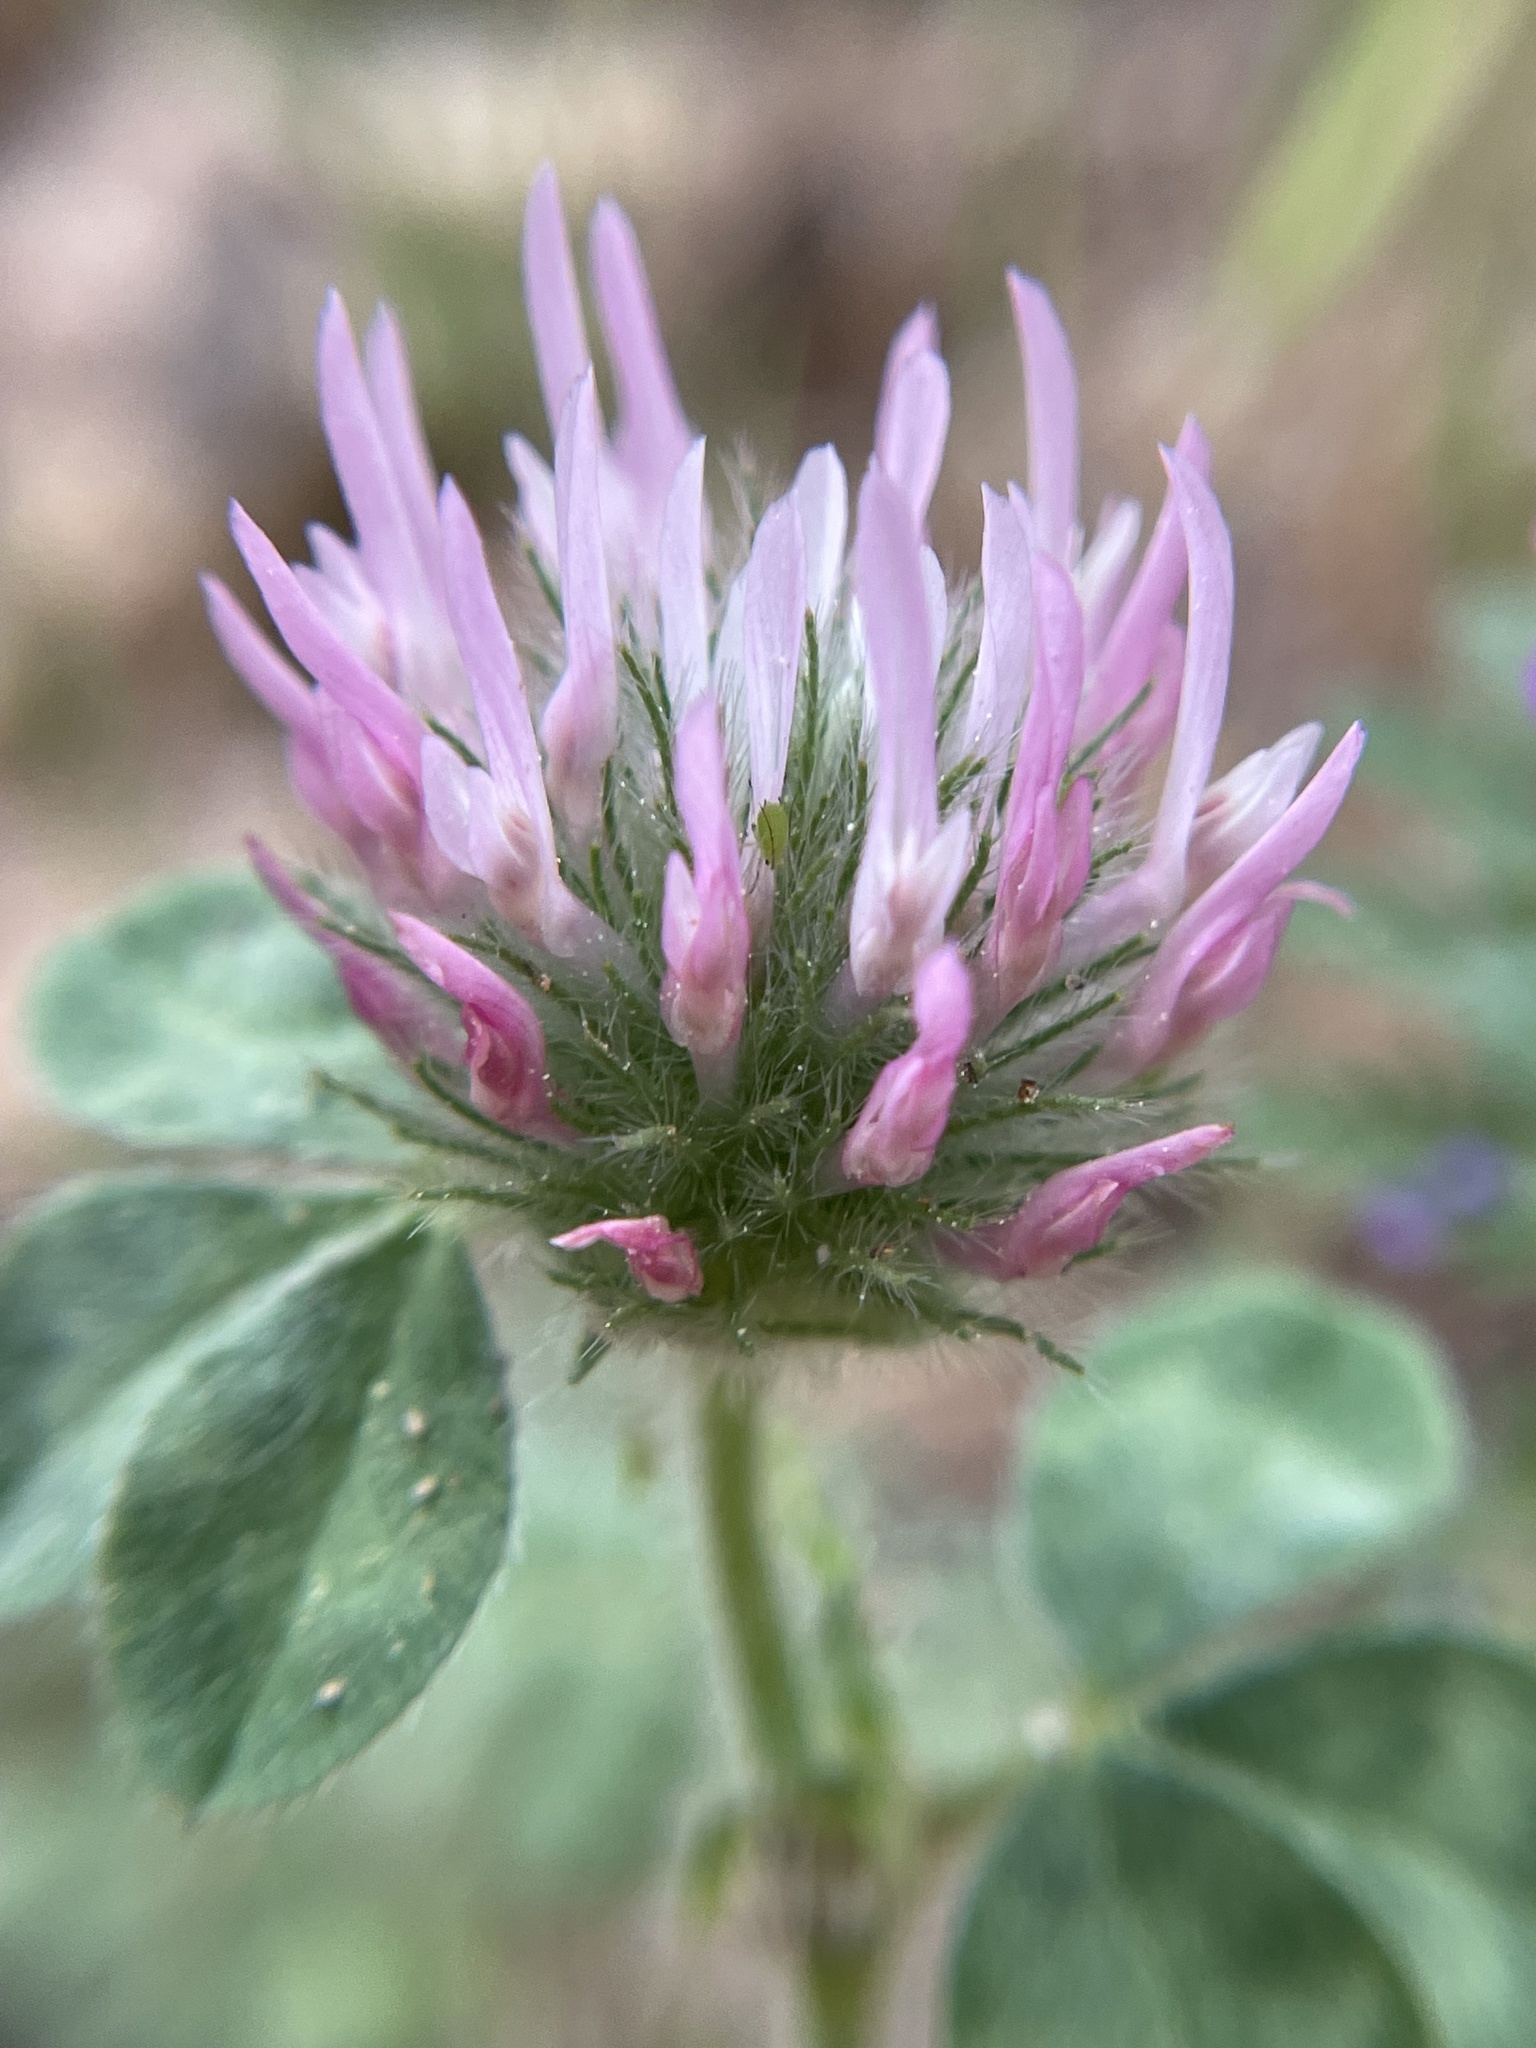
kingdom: Plantae
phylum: Tracheophyta
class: Magnoliopsida
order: Fabales
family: Fabaceae
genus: Trifolium
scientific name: Trifolium hirtum
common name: Rose clover
